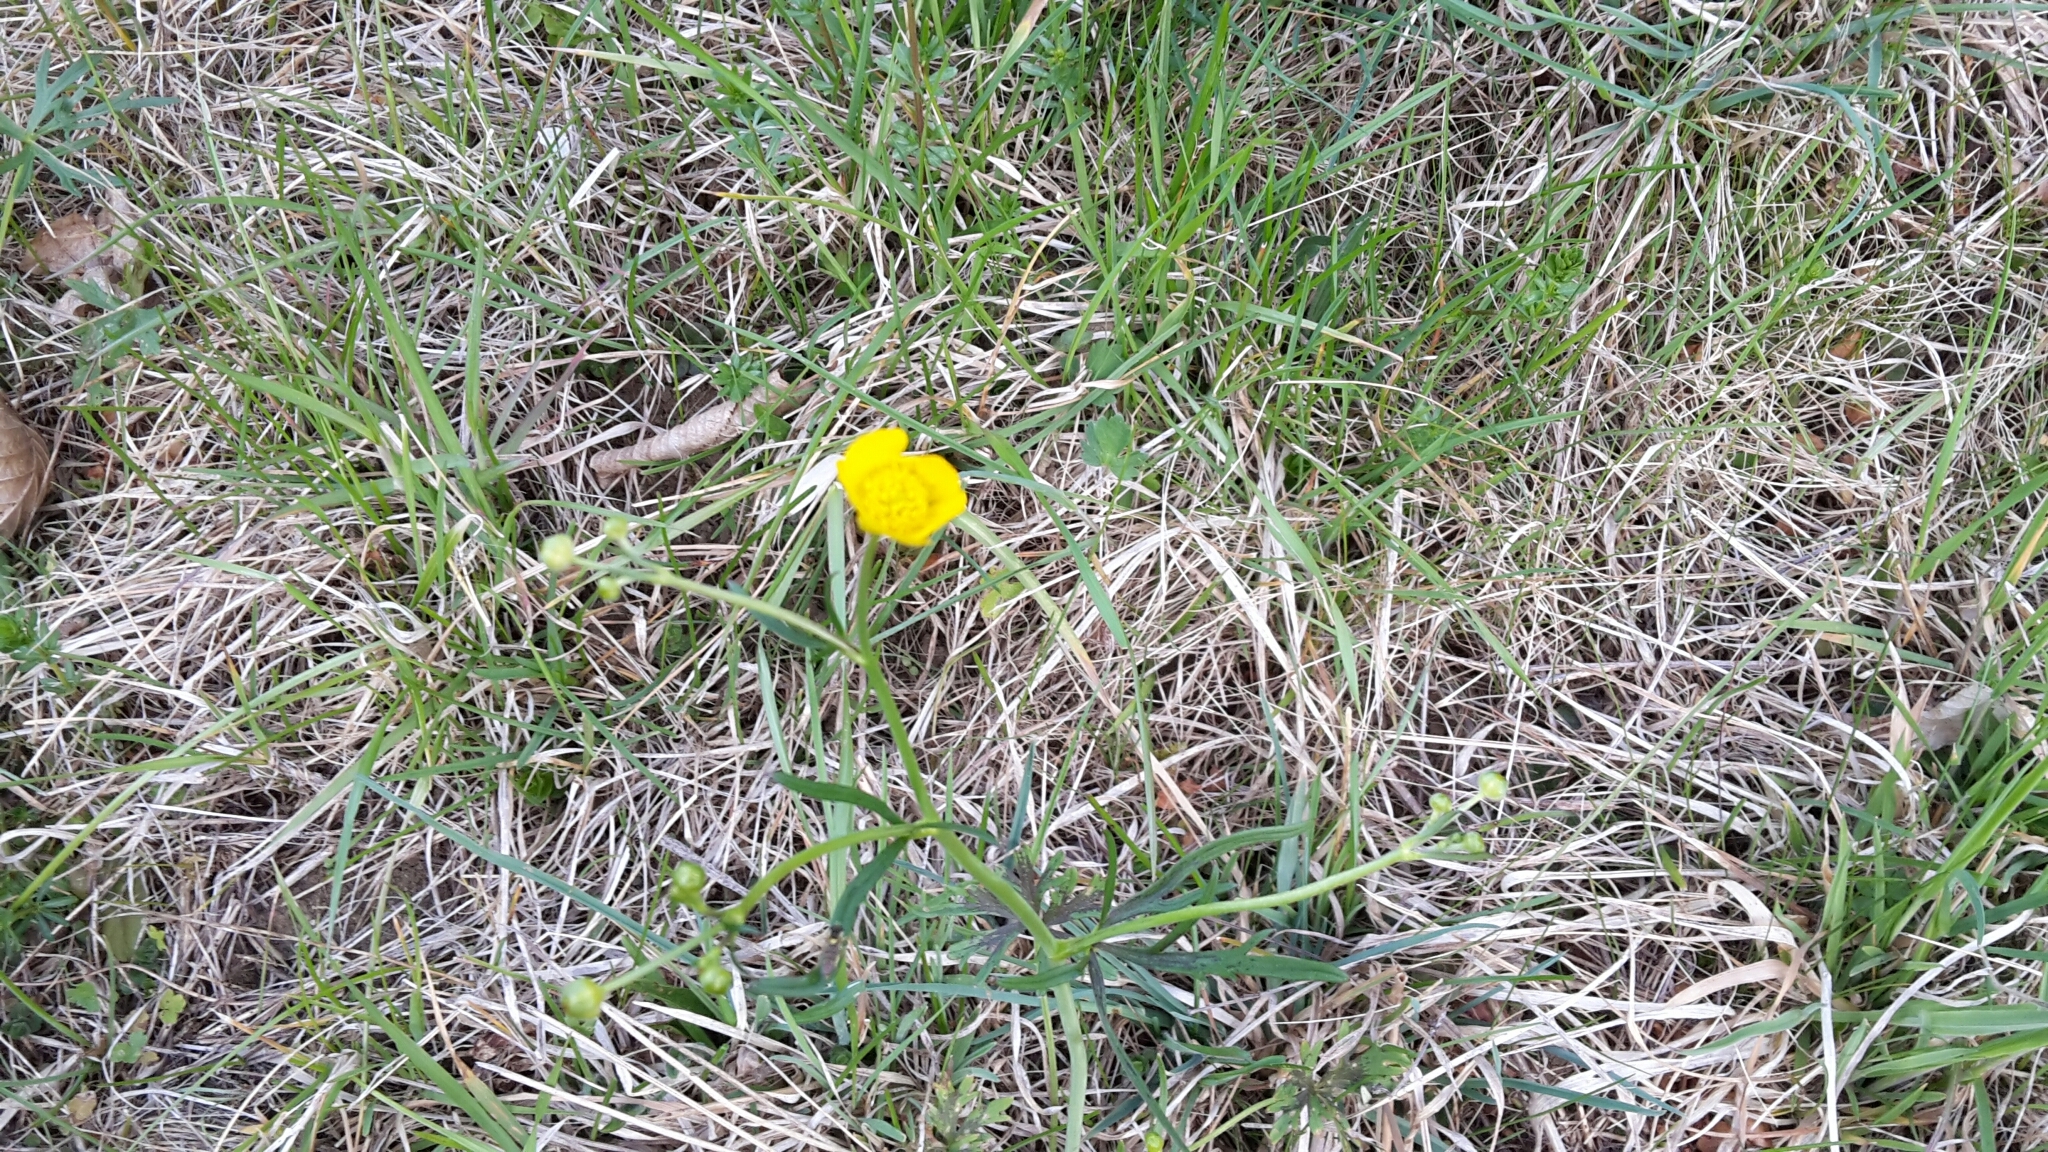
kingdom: Plantae
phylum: Tracheophyta
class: Magnoliopsida
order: Ranunculales
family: Ranunculaceae
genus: Ranunculus
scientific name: Ranunculus acris
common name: Meadow buttercup
